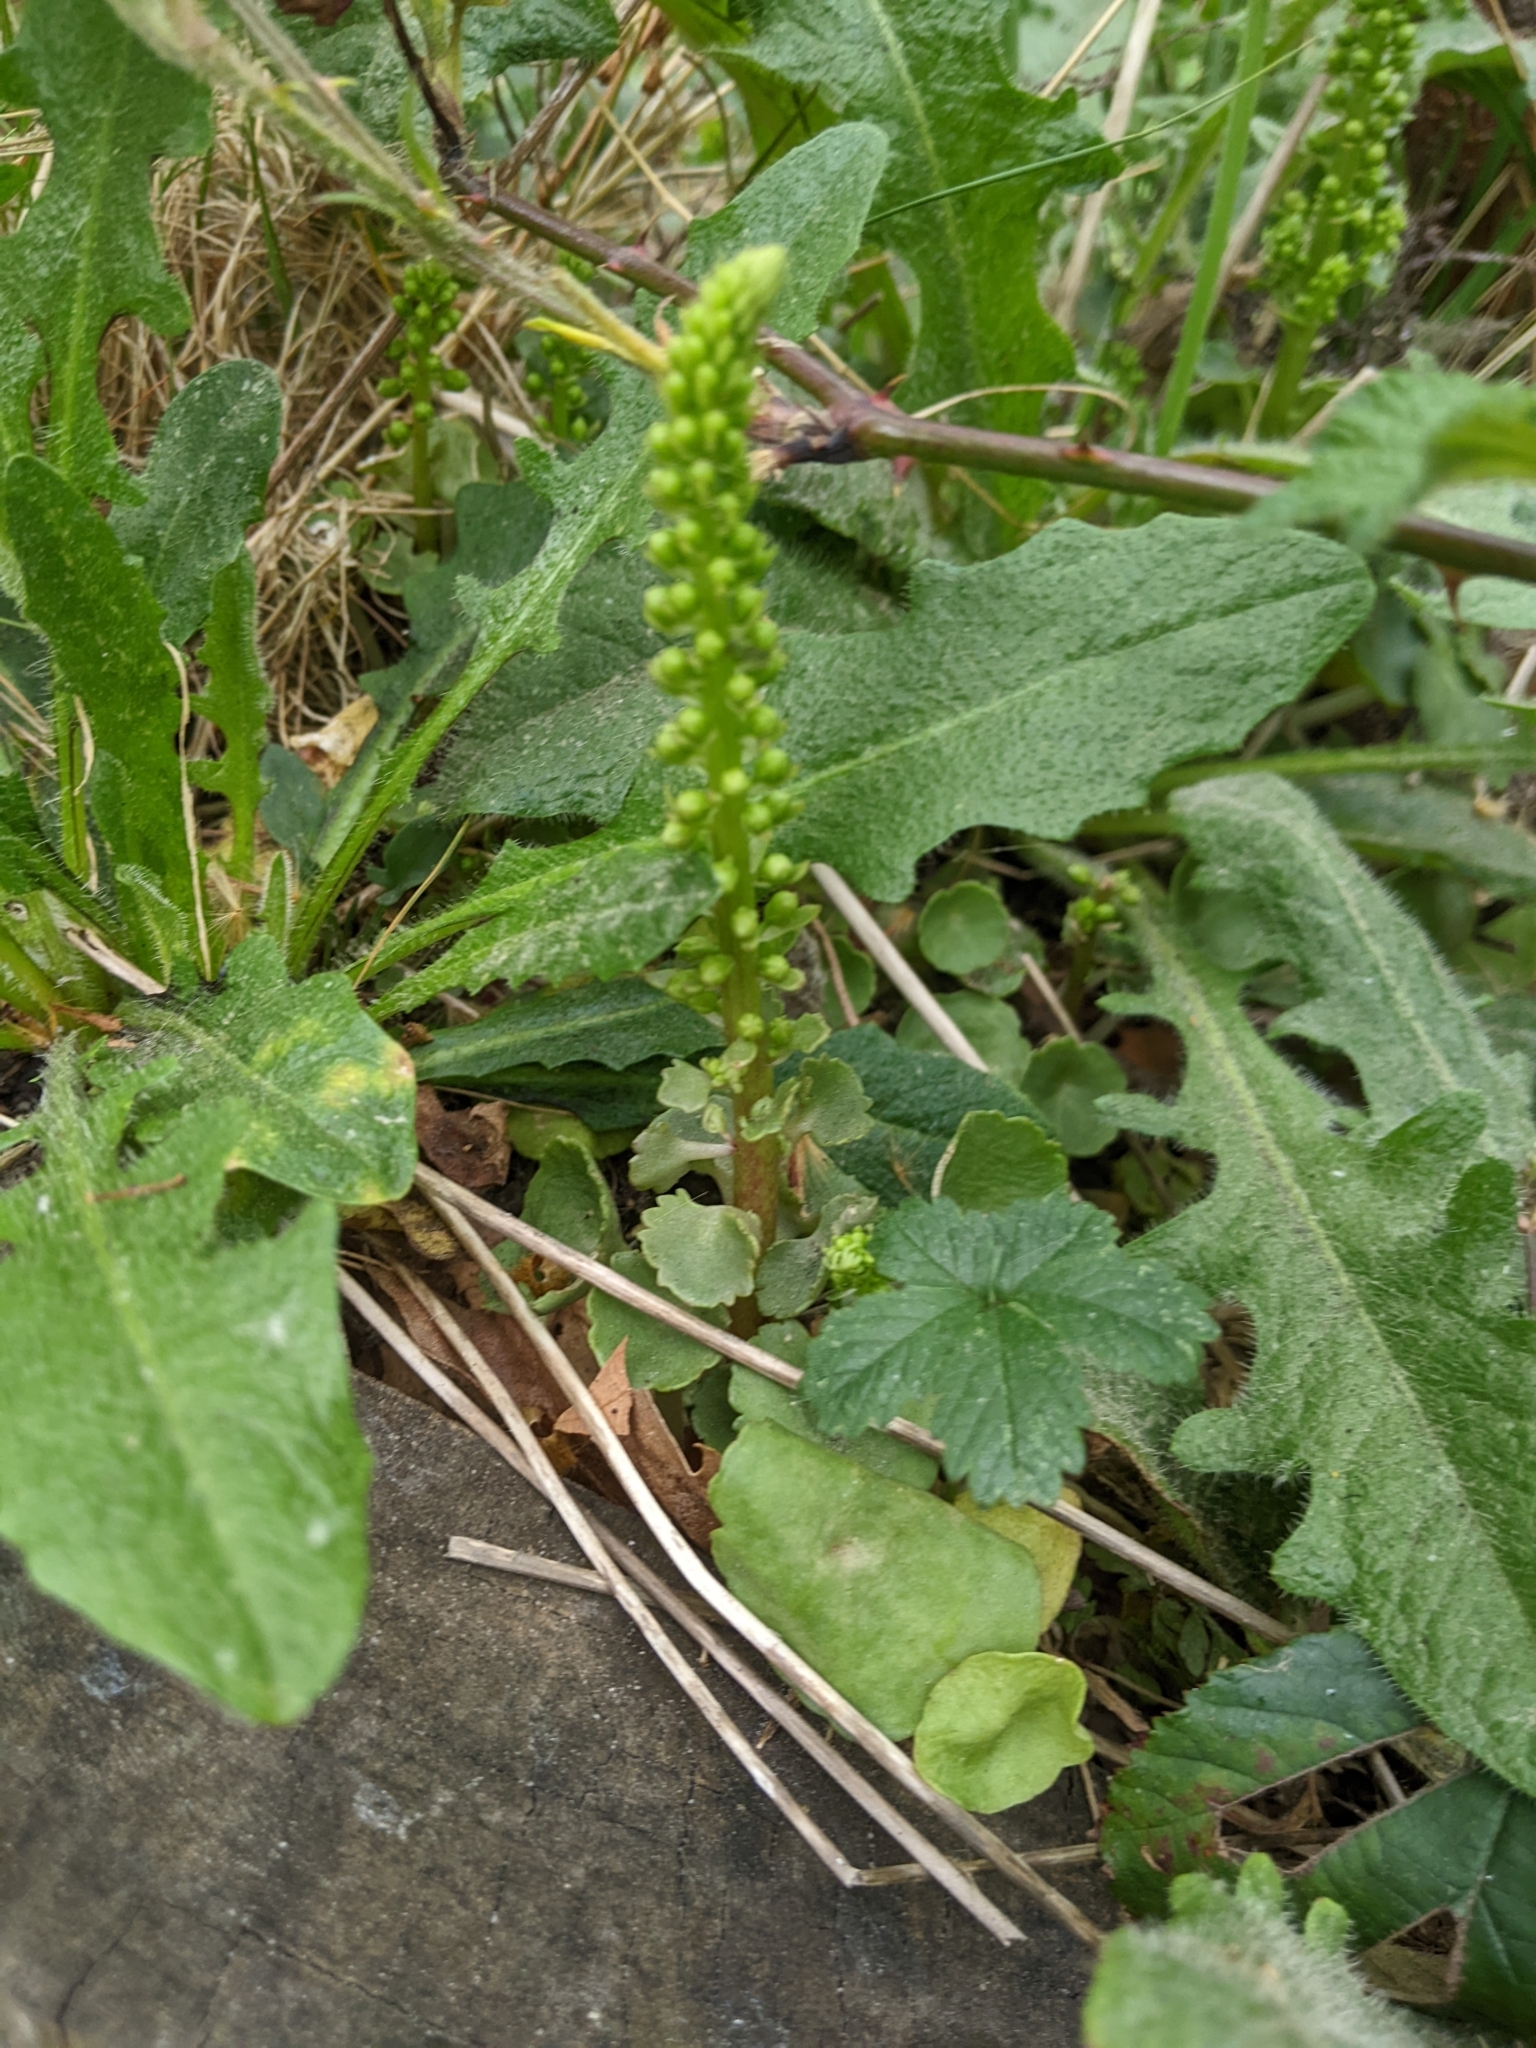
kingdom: Plantae
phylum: Tracheophyta
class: Magnoliopsida
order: Saxifragales
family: Crassulaceae
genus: Umbilicus
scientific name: Umbilicus rupestris
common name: Navelwort
